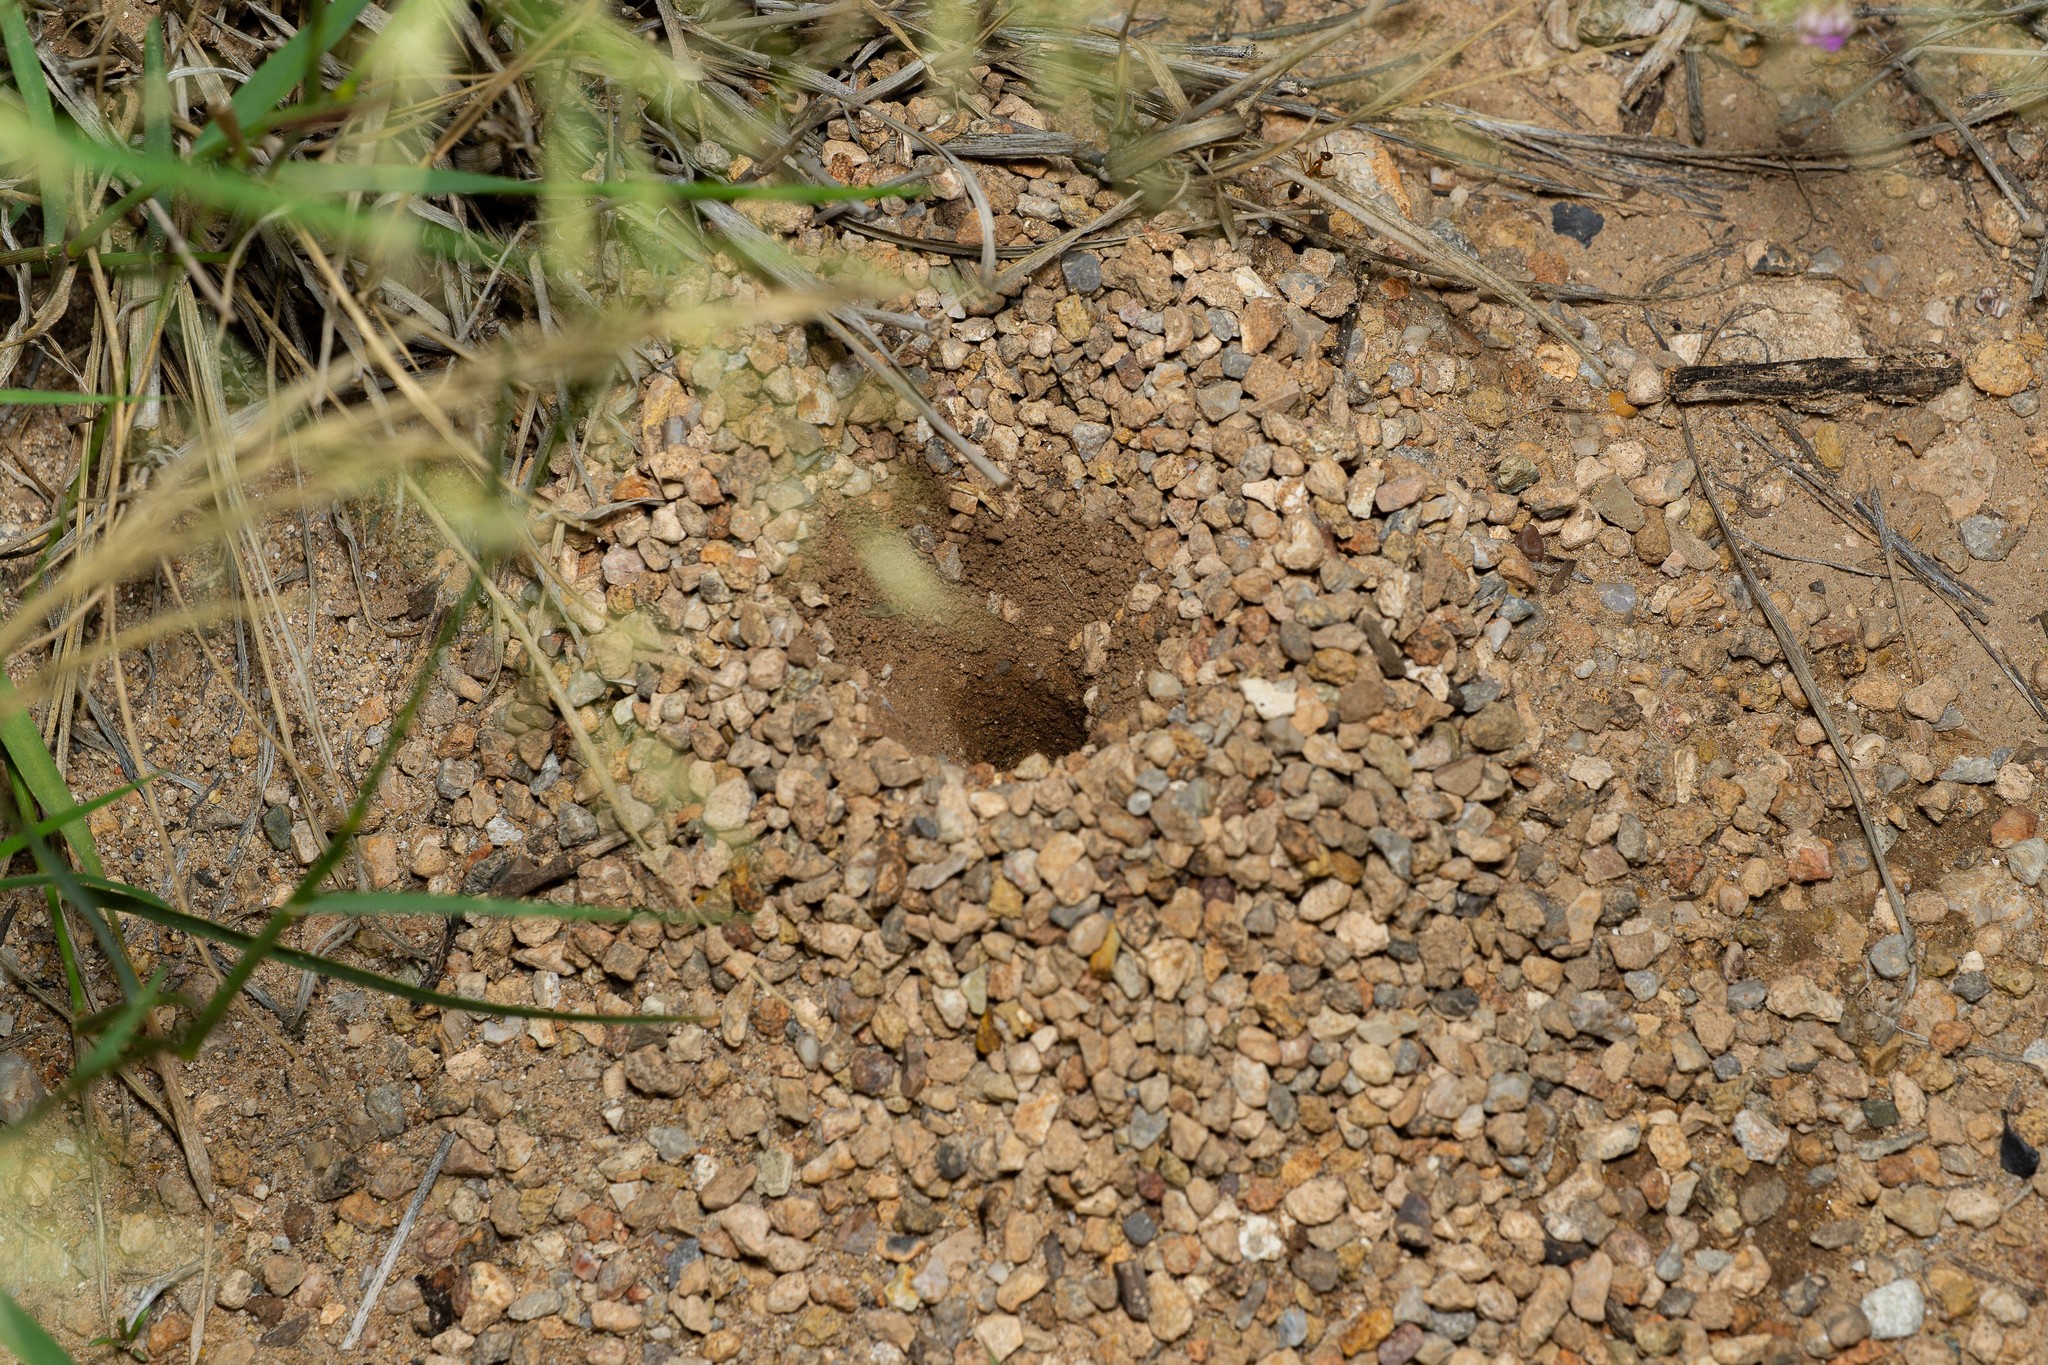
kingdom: Animalia
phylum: Arthropoda
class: Insecta
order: Hymenoptera
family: Formicidae
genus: Myrmecocystus
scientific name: Myrmecocystus mexicanus
